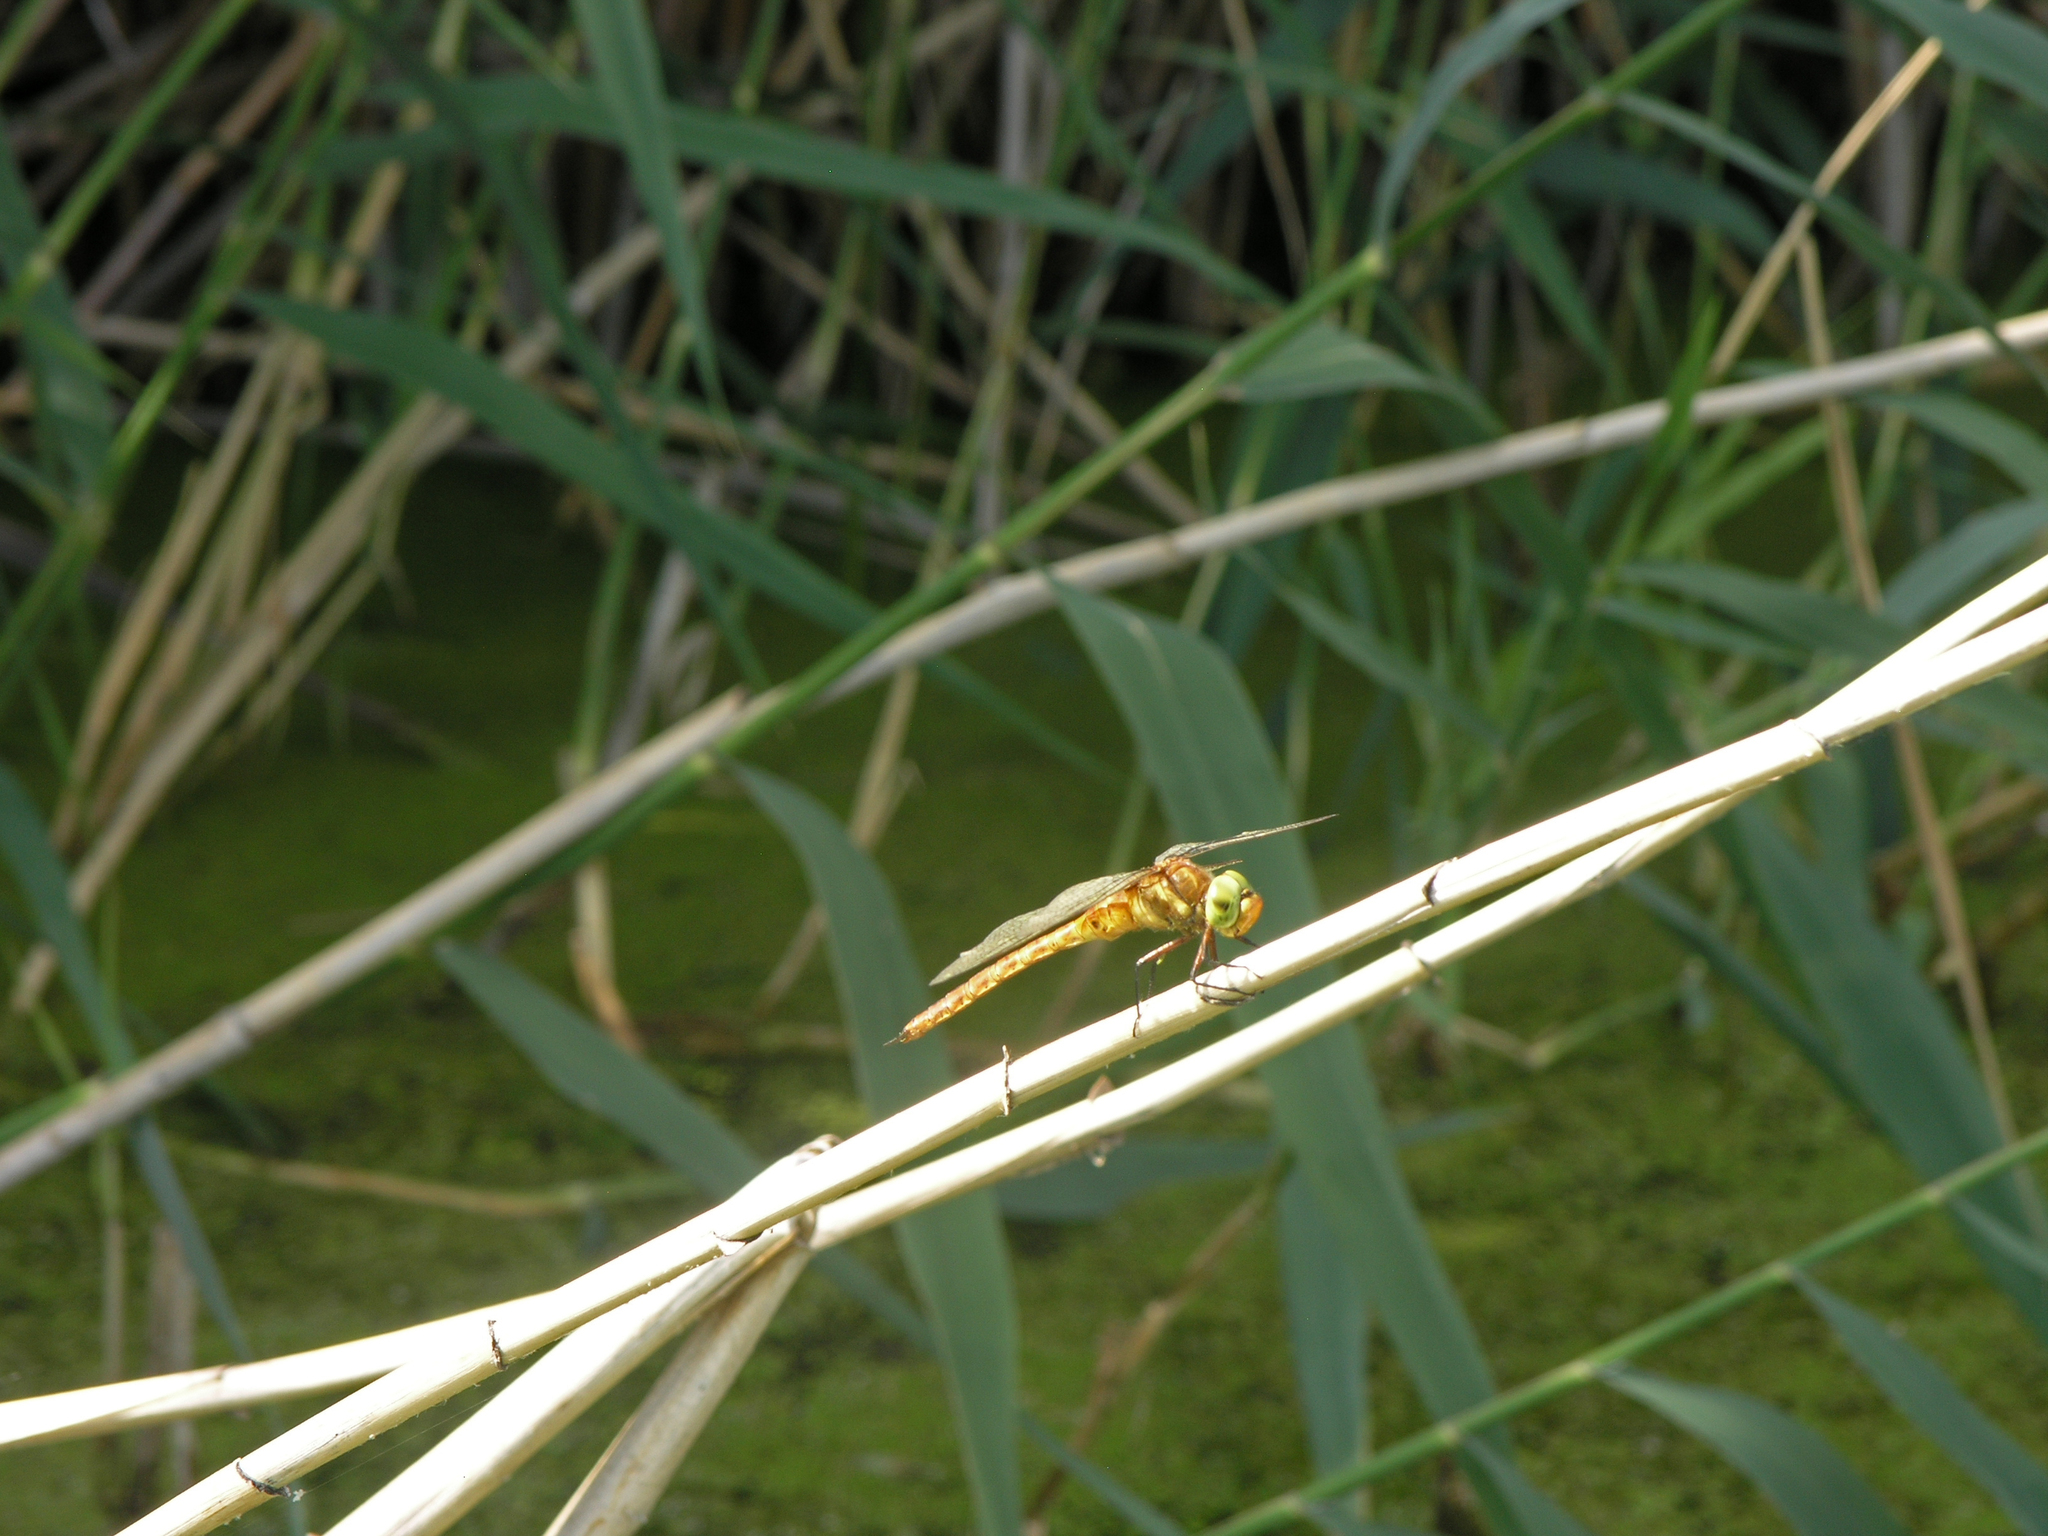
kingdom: Animalia
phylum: Arthropoda
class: Insecta
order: Odonata
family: Aeshnidae
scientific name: Aeshnidae
